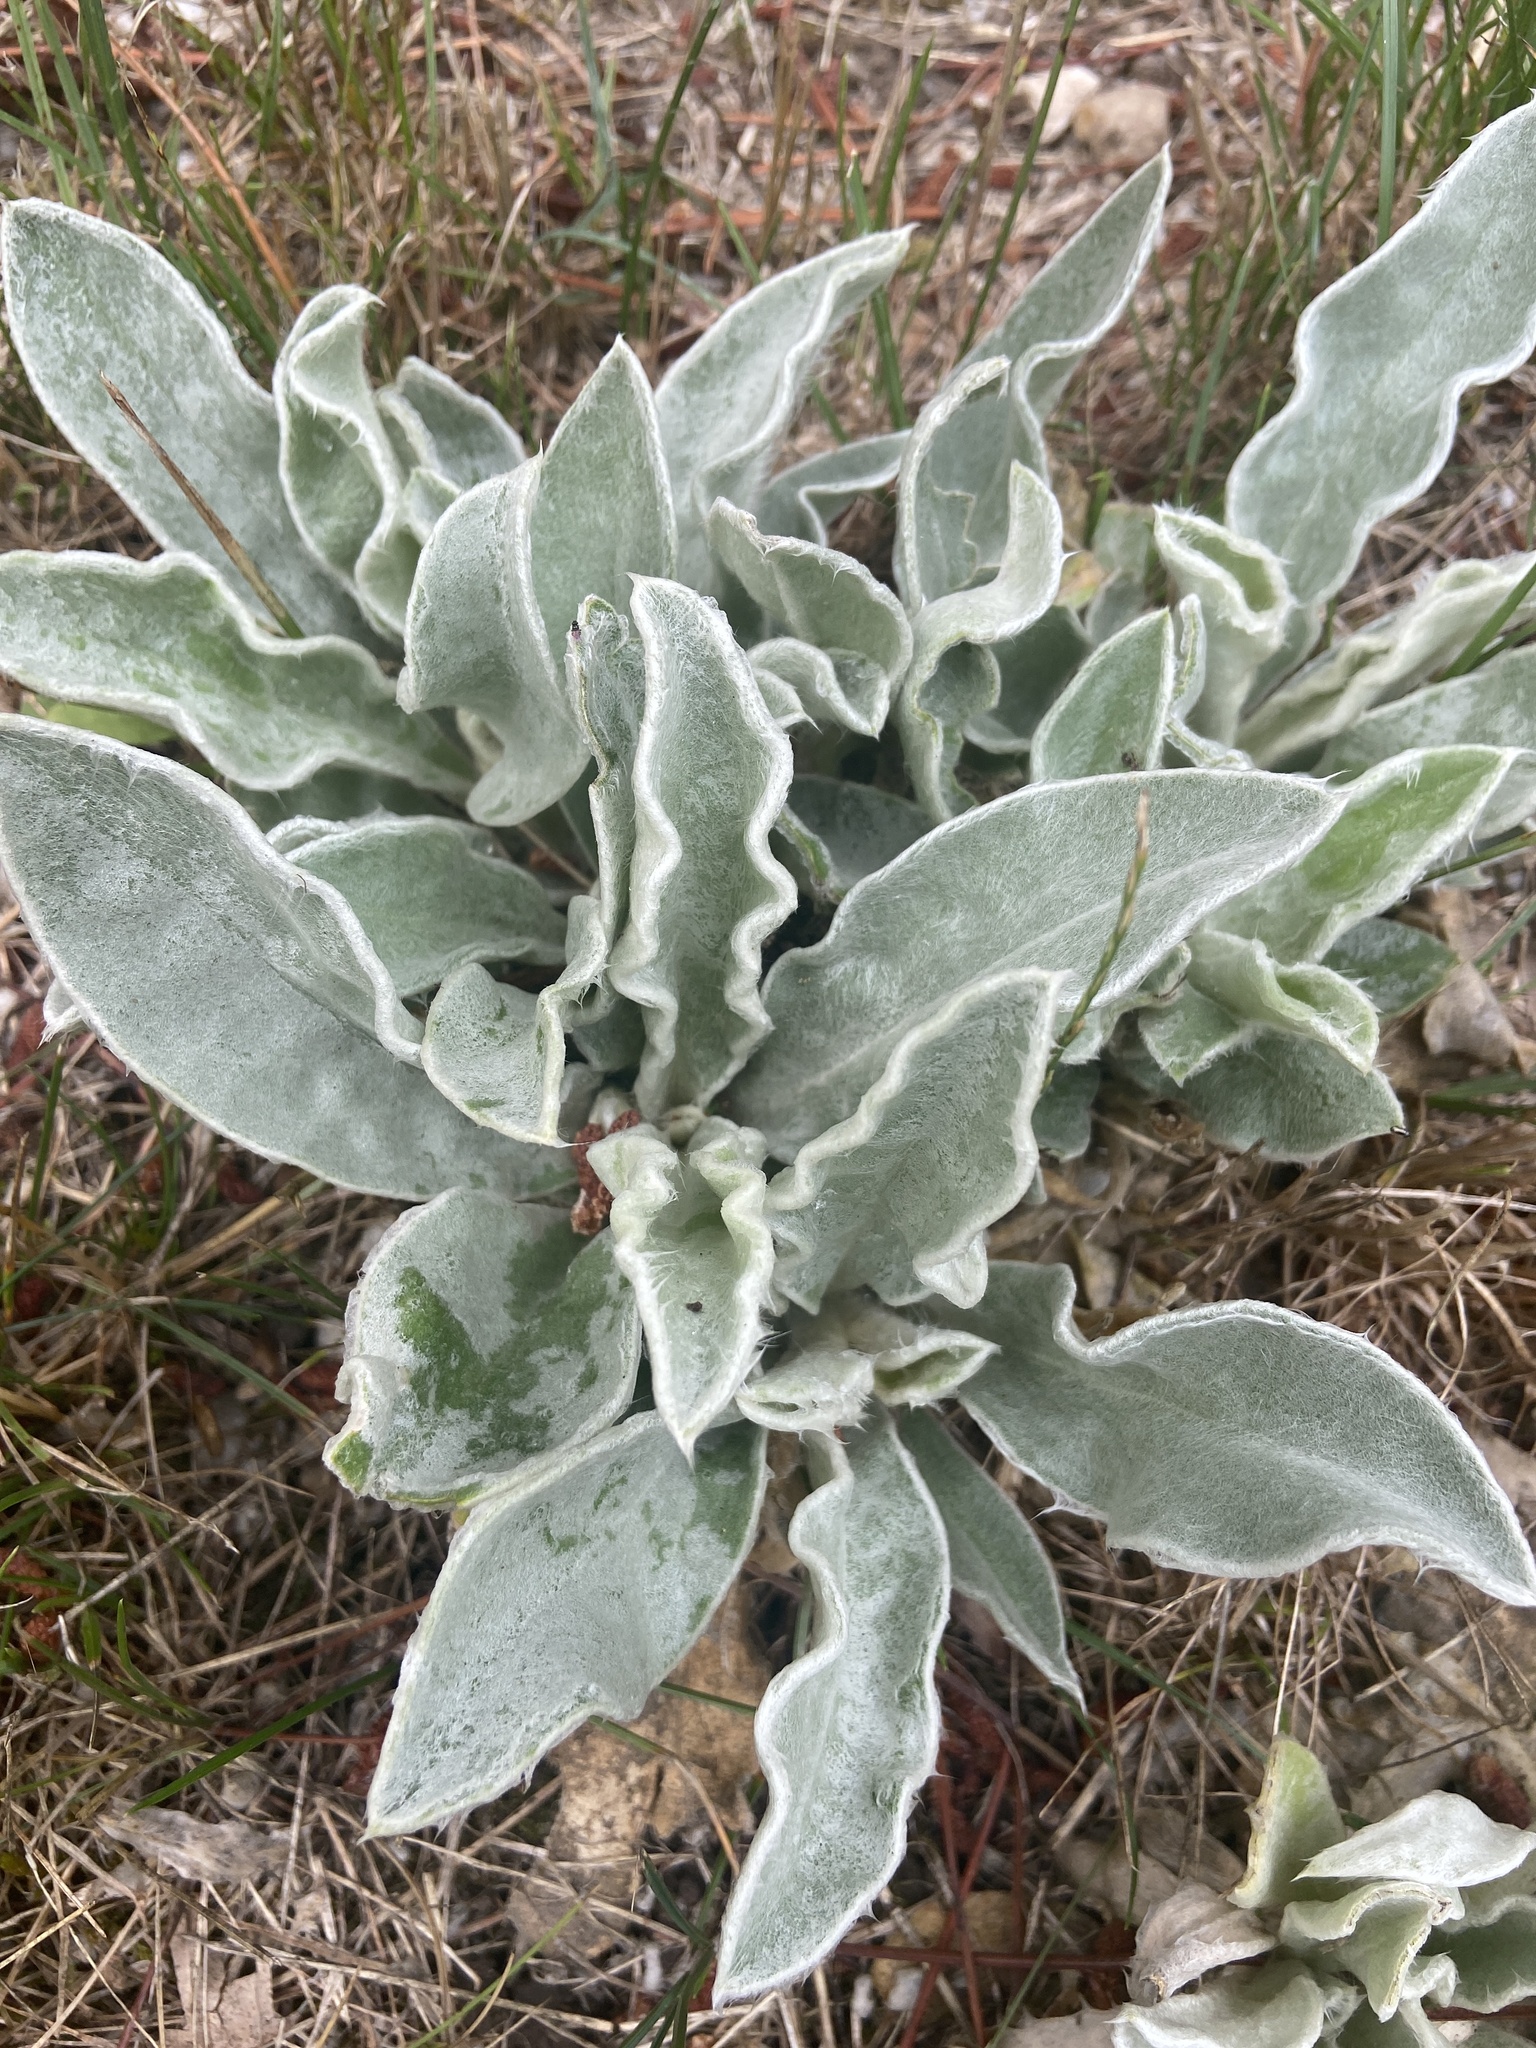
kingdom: Plantae
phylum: Tracheophyta
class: Magnoliopsida
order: Caryophyllales
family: Caryophyllaceae
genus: Silene
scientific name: Silene coronaria
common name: Rose campion
